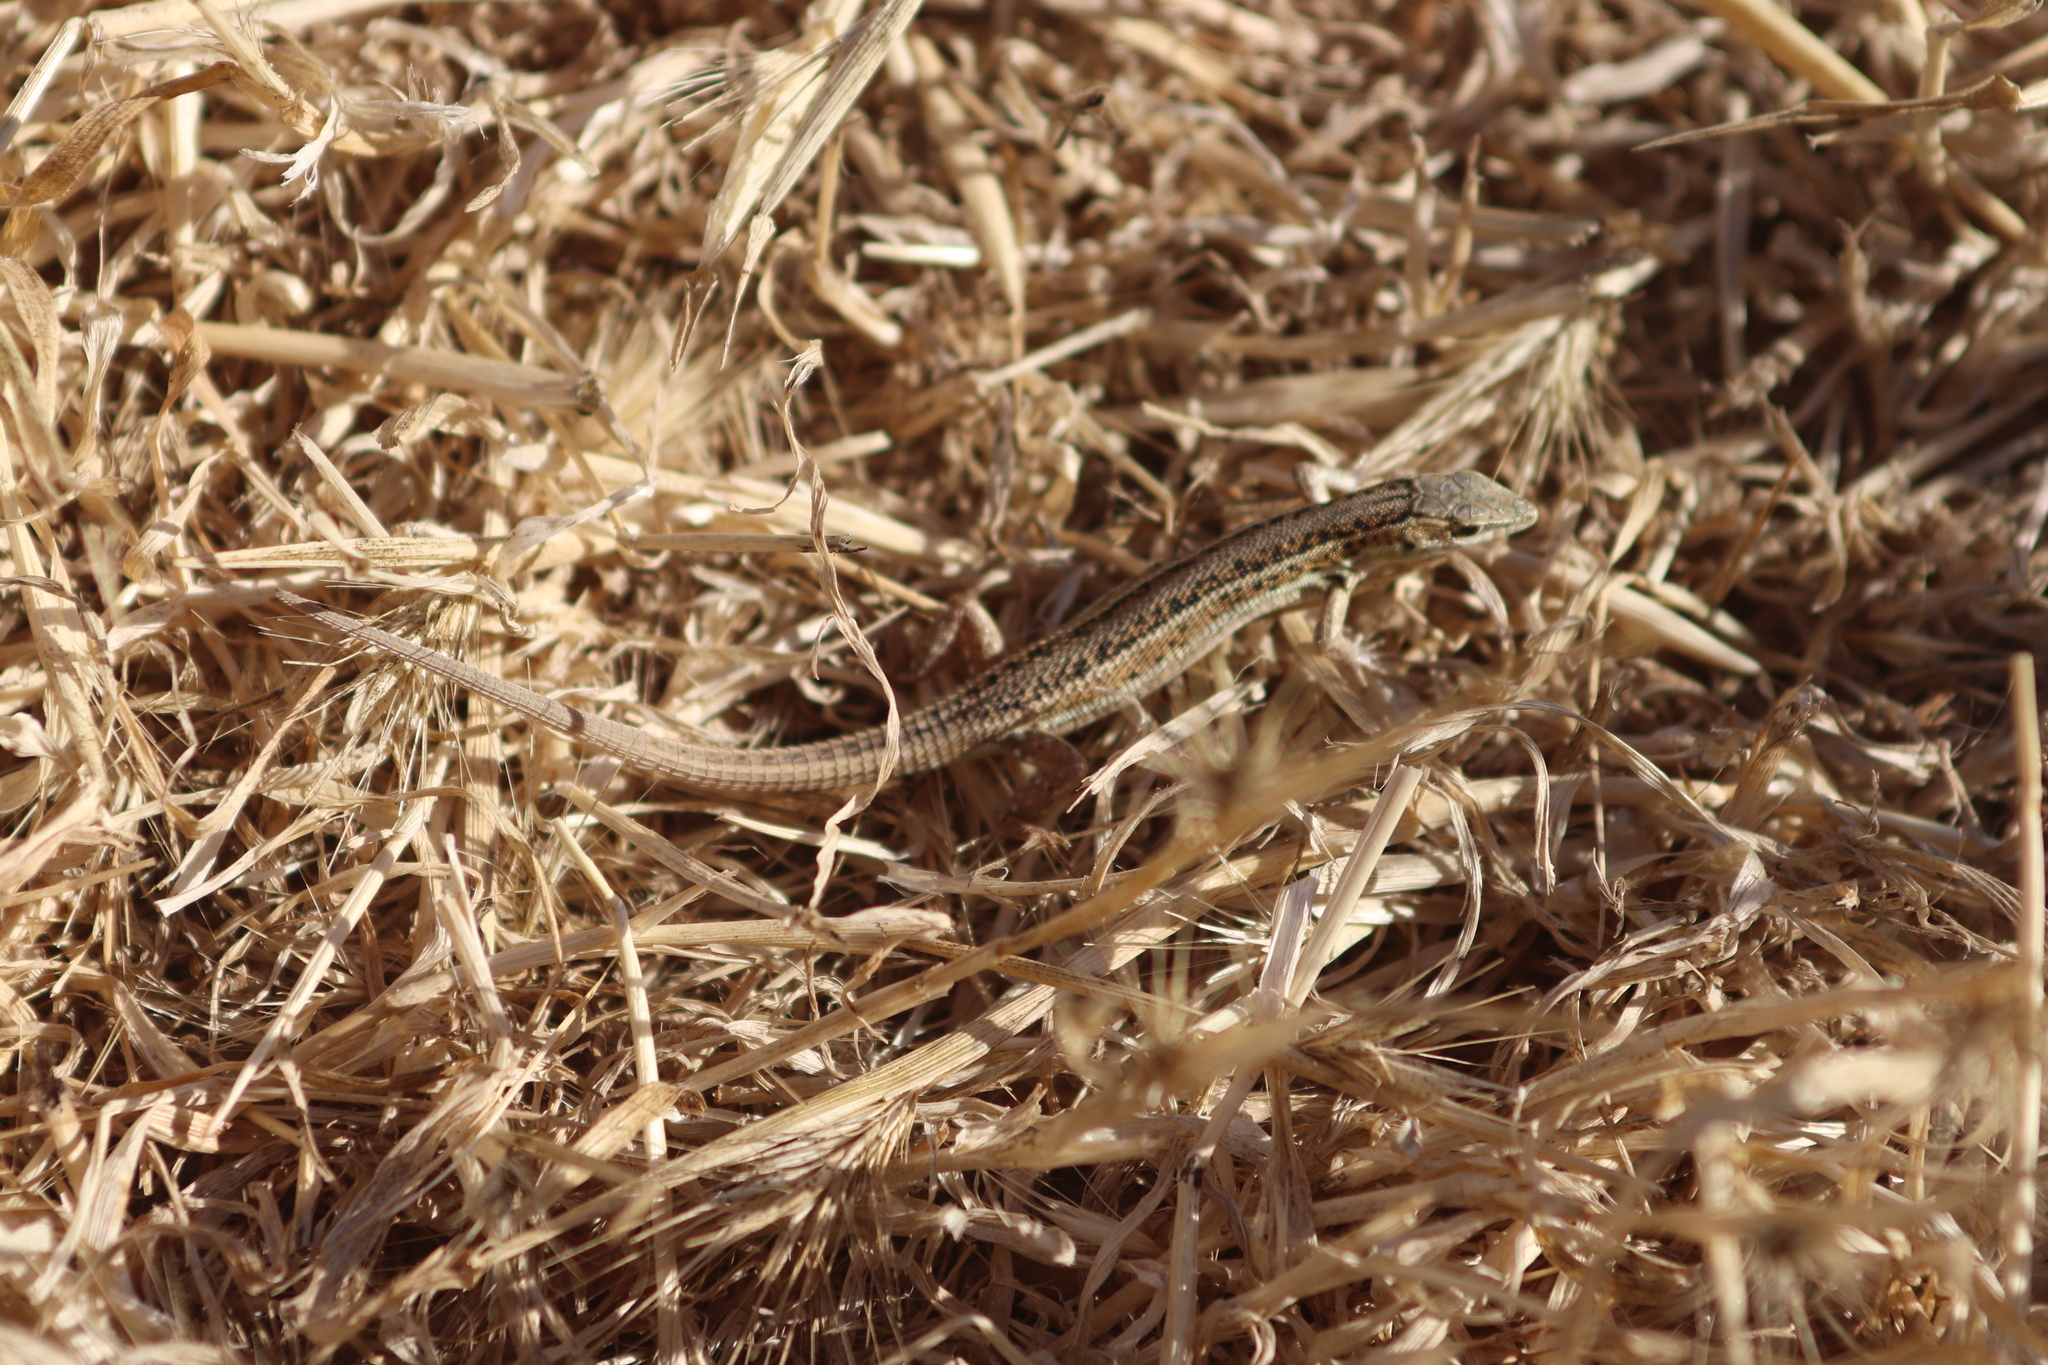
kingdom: Animalia
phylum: Chordata
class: Squamata
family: Lacertidae
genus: Ophisops
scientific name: Ophisops elegans
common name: Snake-eyed lizard
